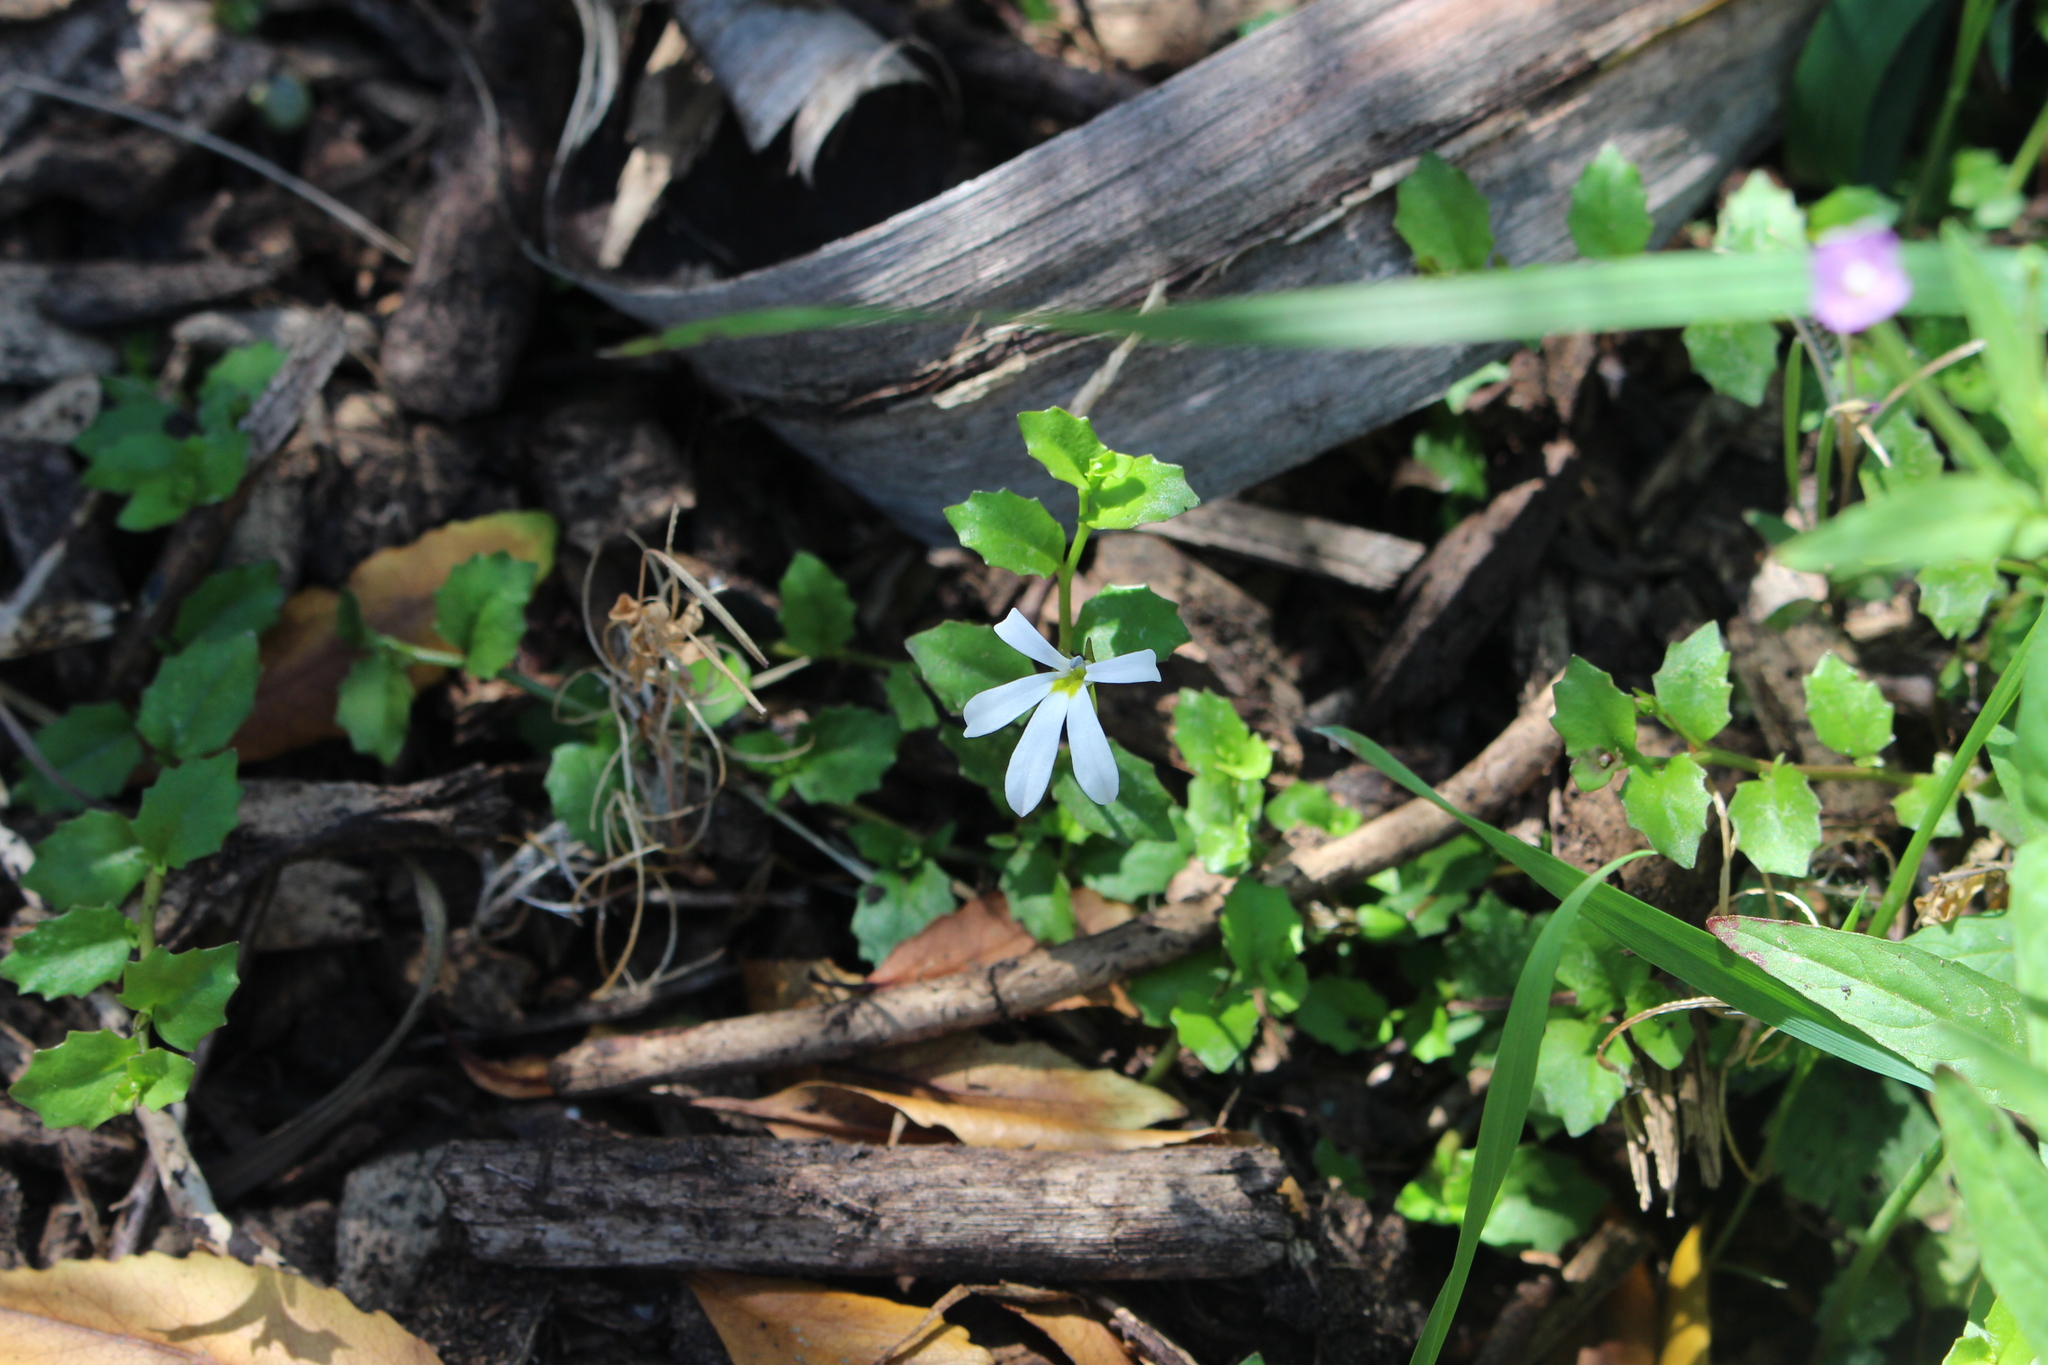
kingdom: Plantae
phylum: Tracheophyta
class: Magnoliopsida
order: Asterales
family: Campanulaceae
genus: Lobelia
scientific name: Lobelia angulata
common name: Lawn lobelia
